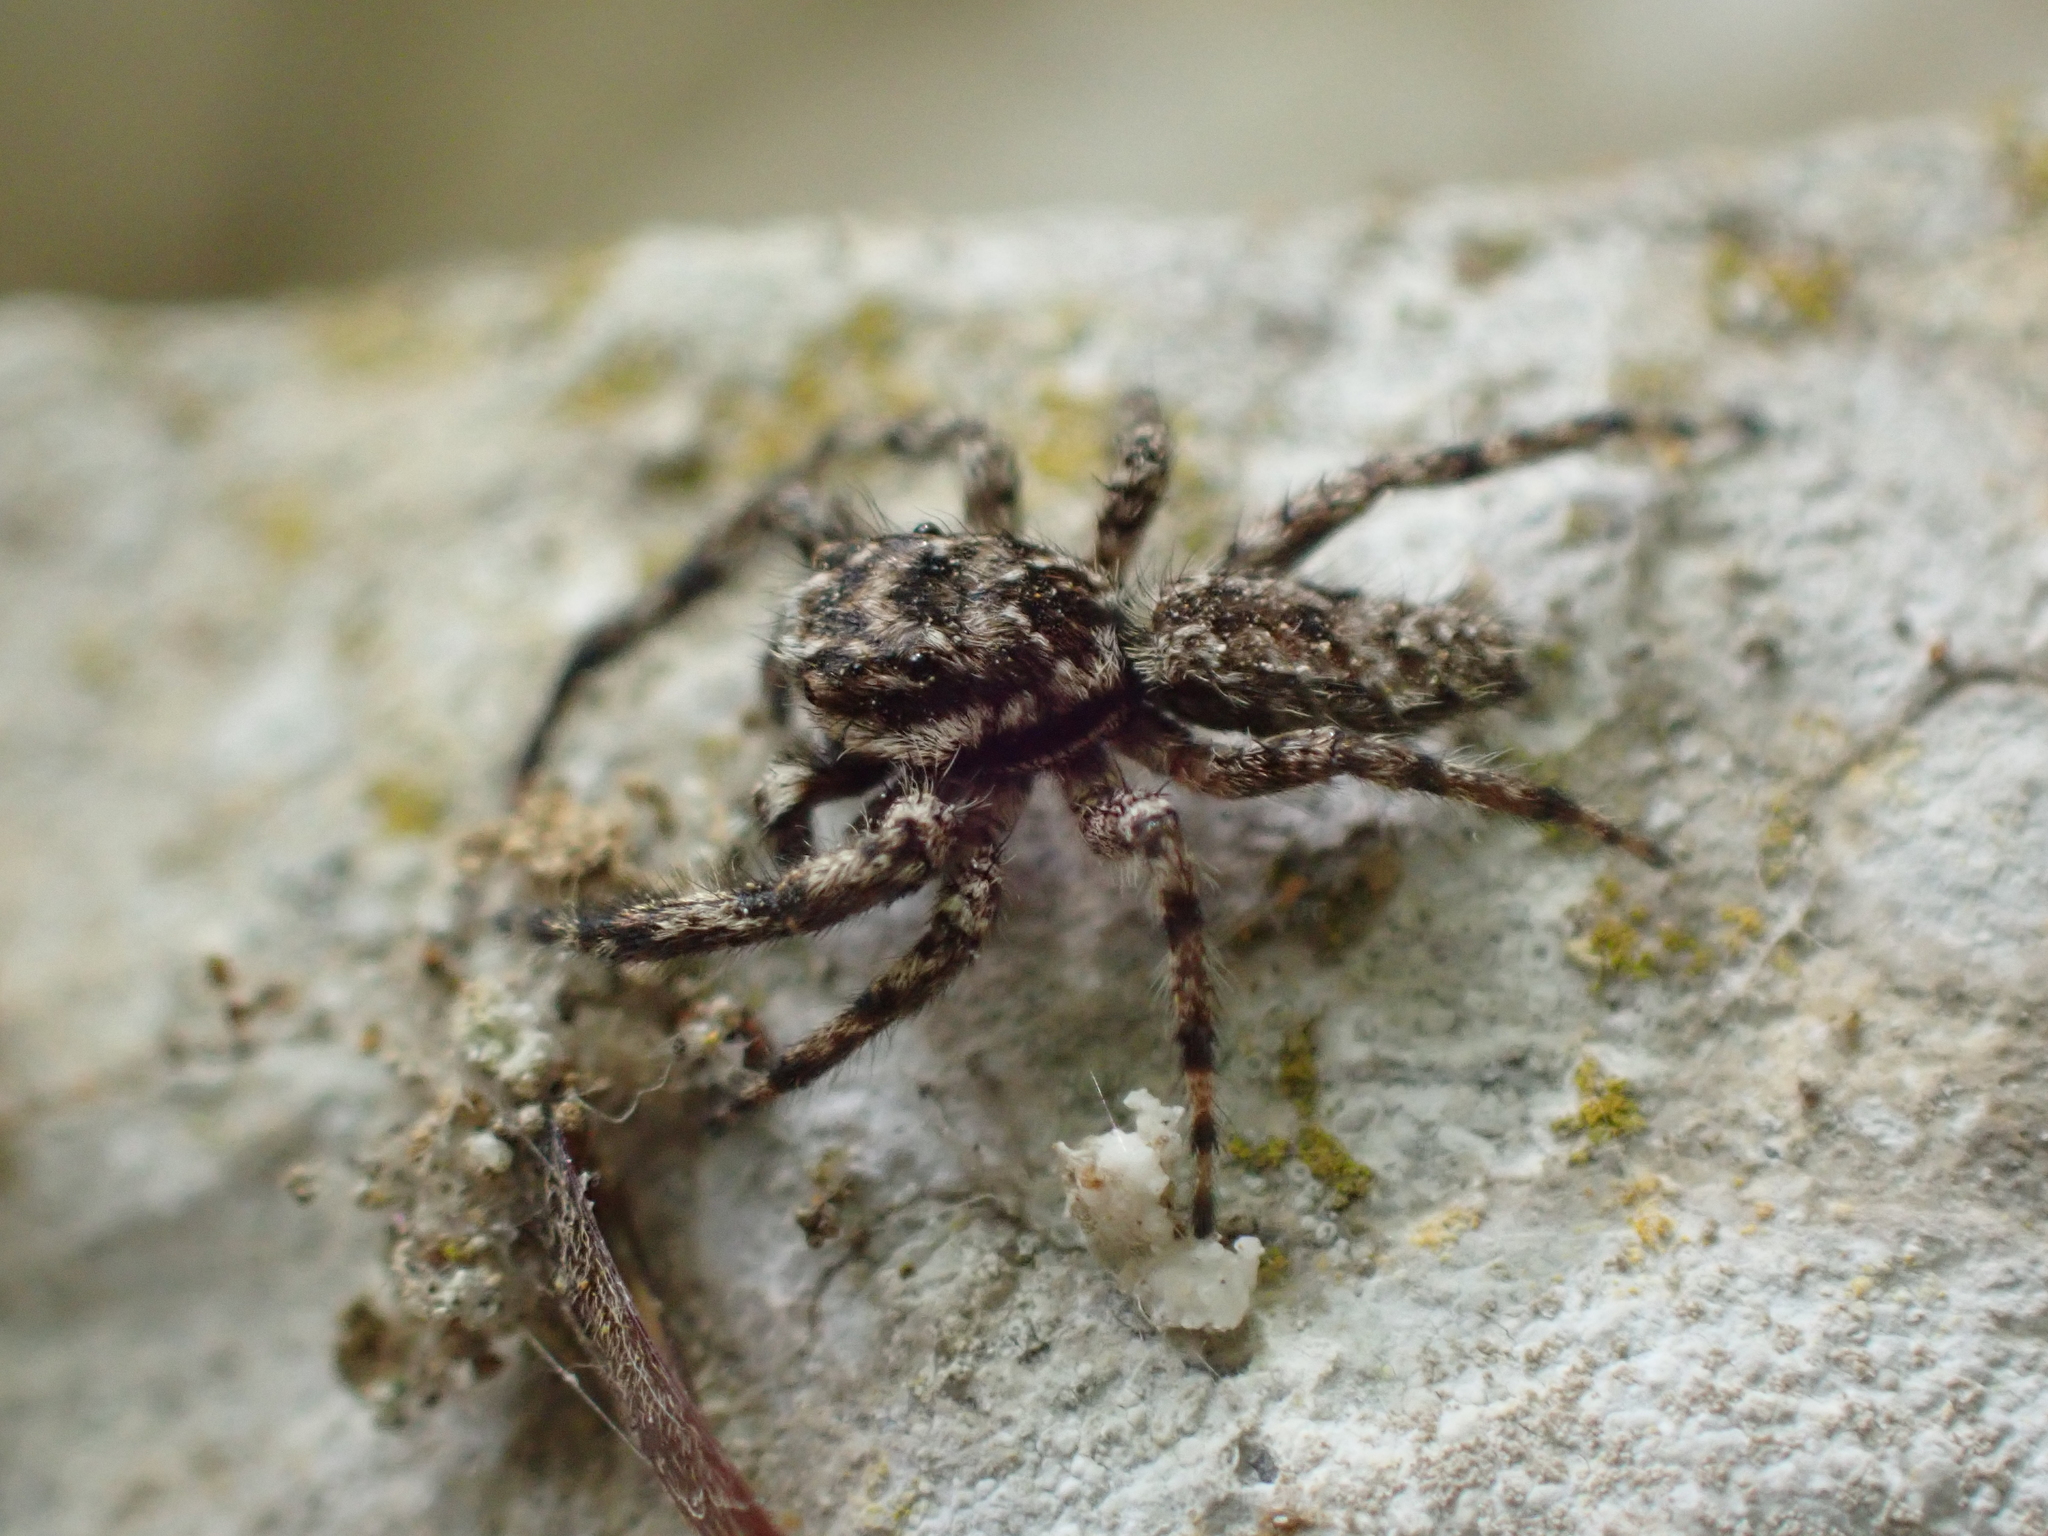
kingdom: Animalia
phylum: Arthropoda
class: Arachnida
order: Araneae
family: Salticidae
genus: Platycryptus
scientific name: Platycryptus undatus
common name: Tan jumping spider
